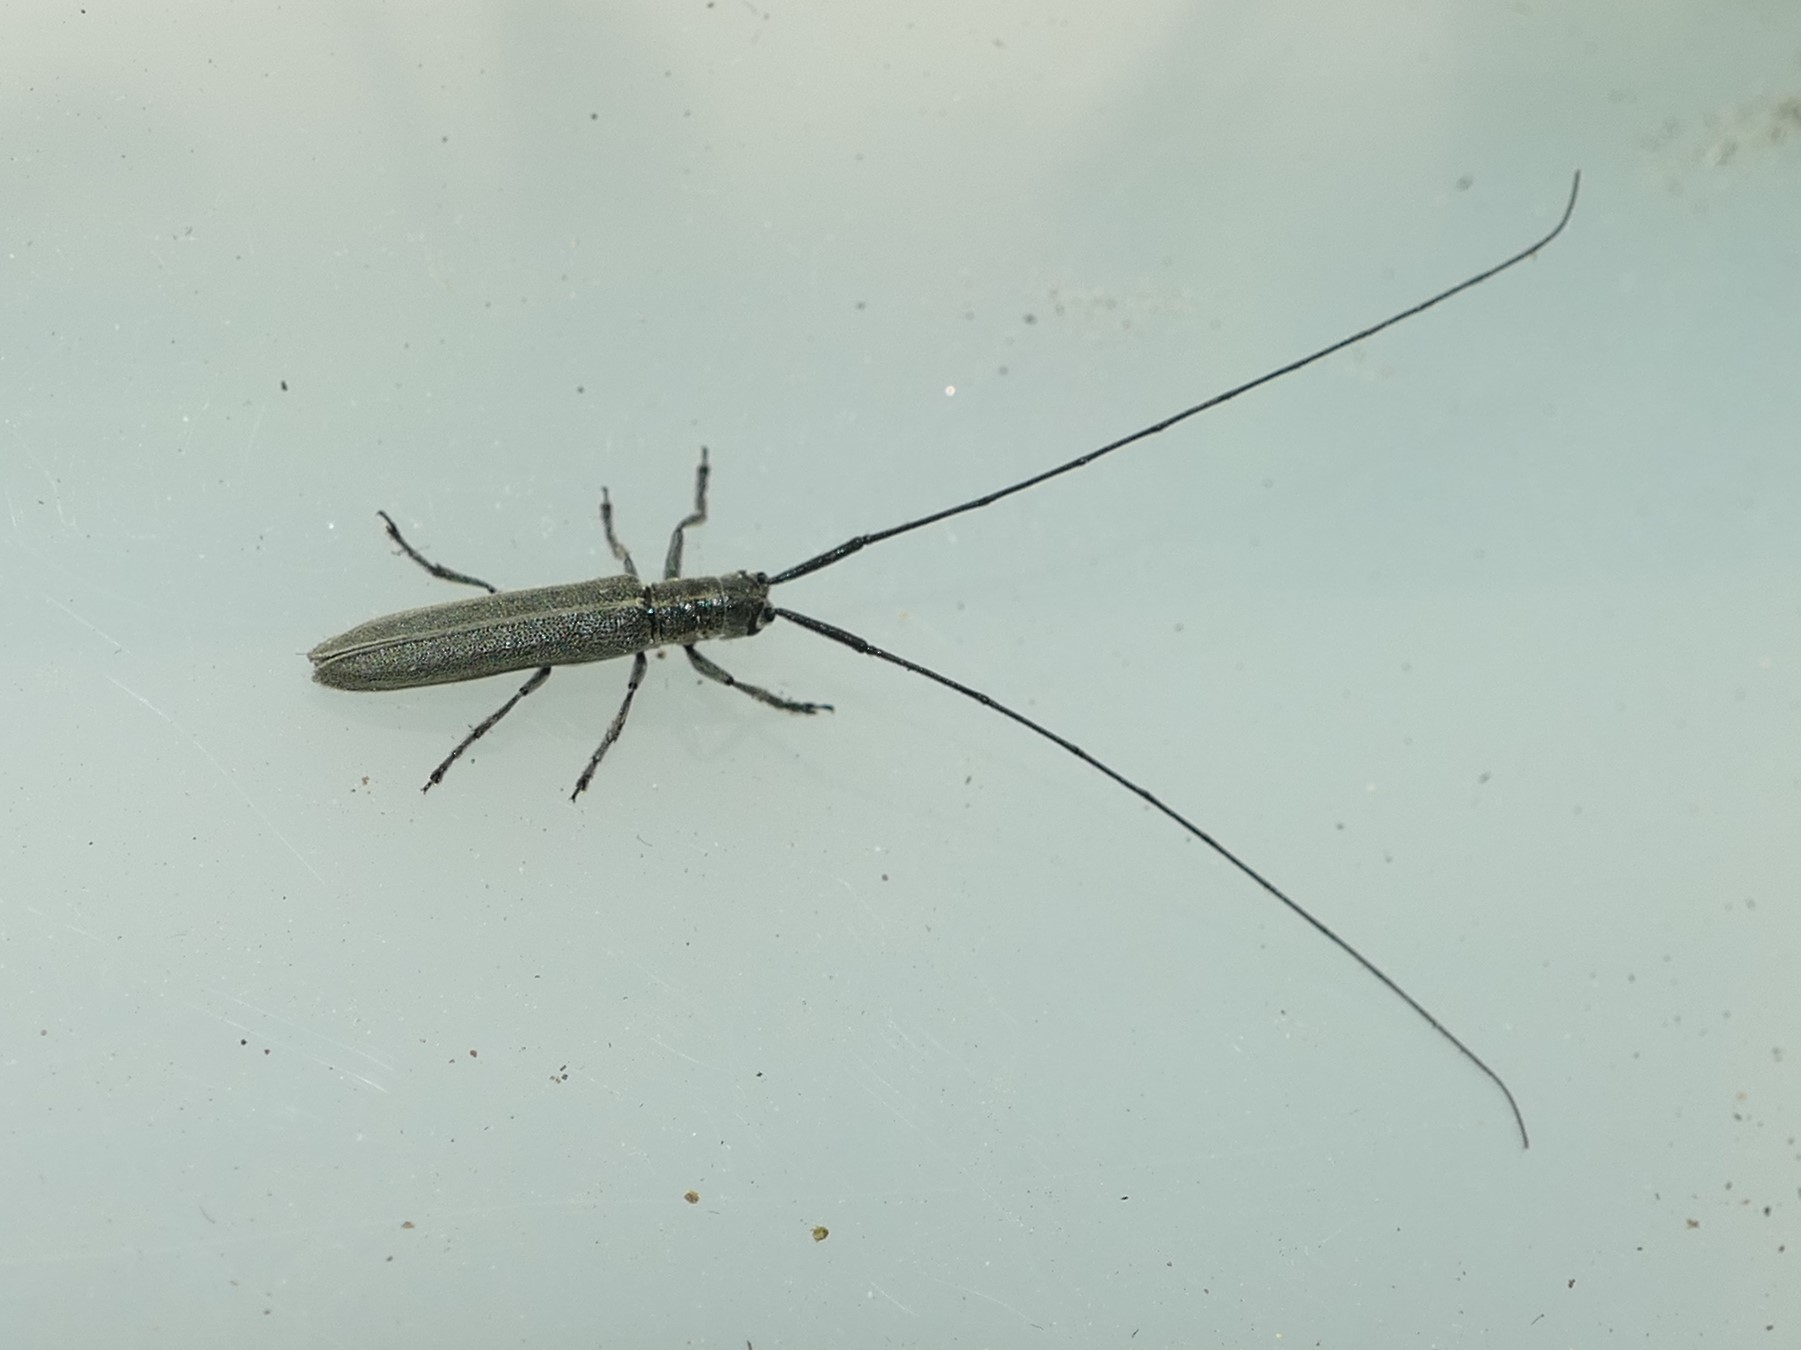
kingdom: Animalia
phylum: Arthropoda
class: Insecta
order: Coleoptera
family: Cerambycidae
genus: Calamobius
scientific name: Calamobius filum
